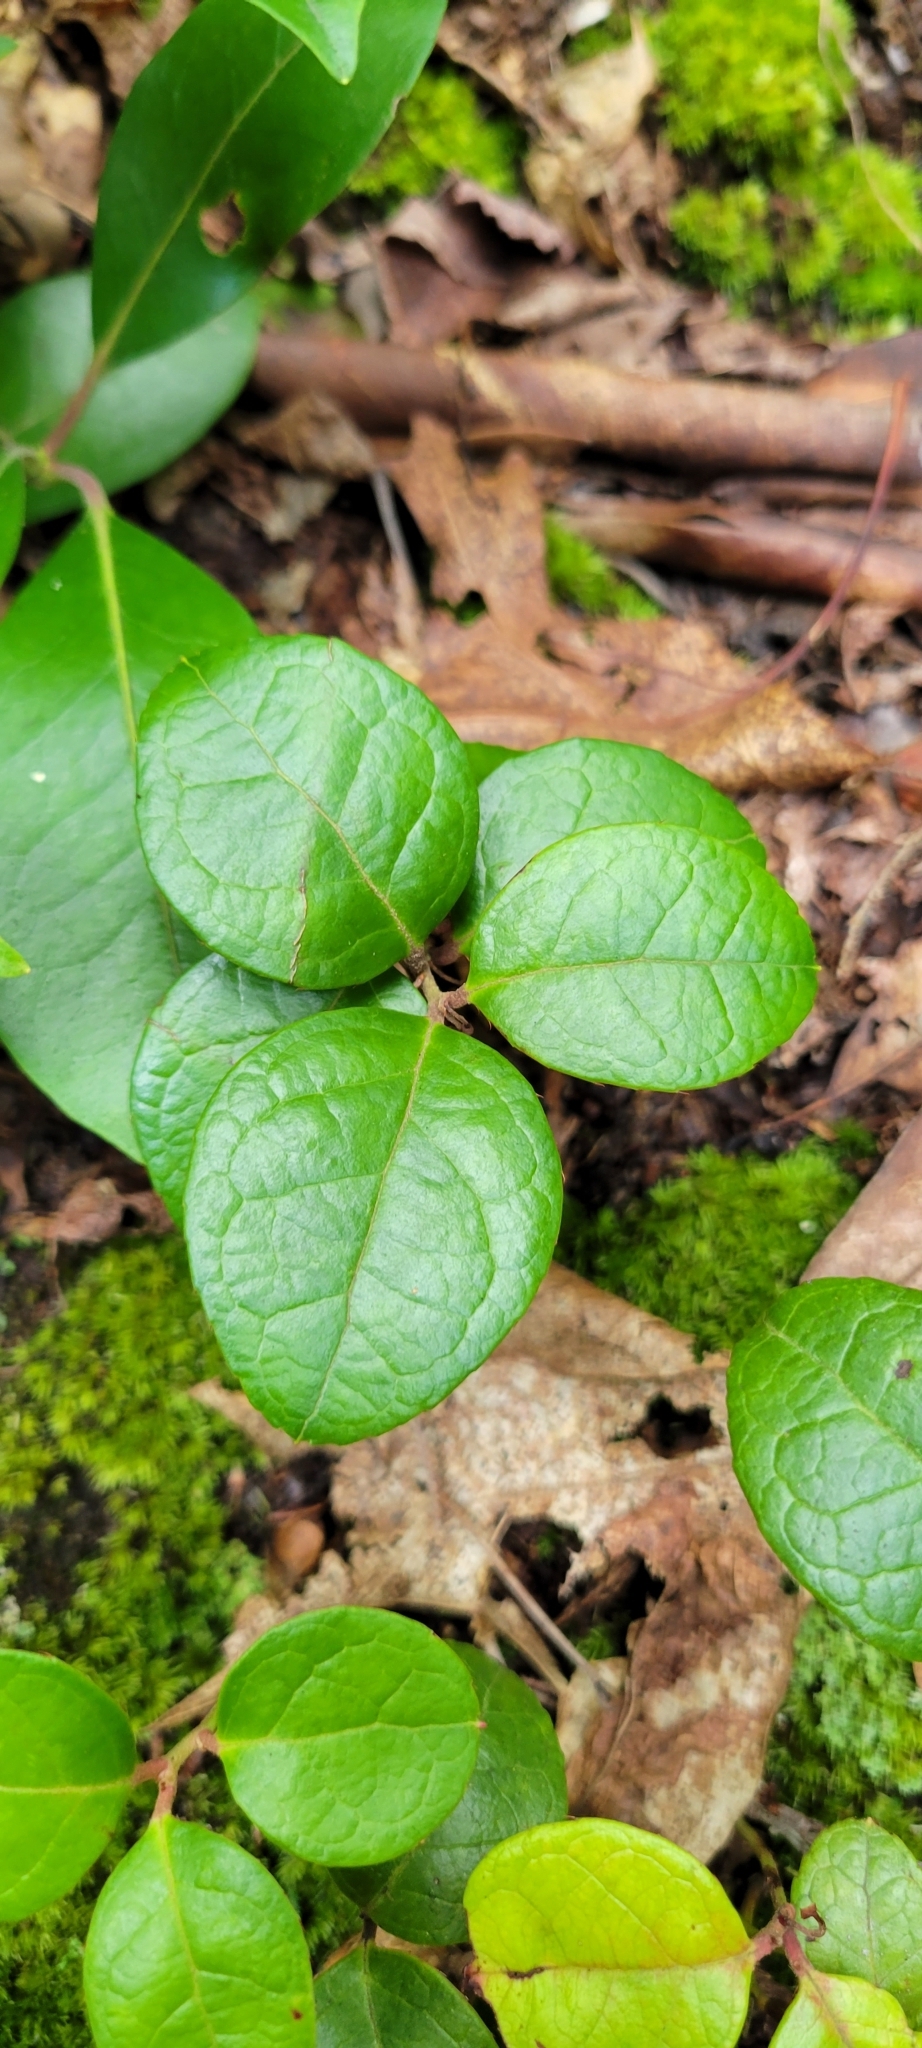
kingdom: Plantae
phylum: Tracheophyta
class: Magnoliopsida
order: Ericales
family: Ericaceae
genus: Gaultheria
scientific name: Gaultheria procumbens
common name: Checkerberry
